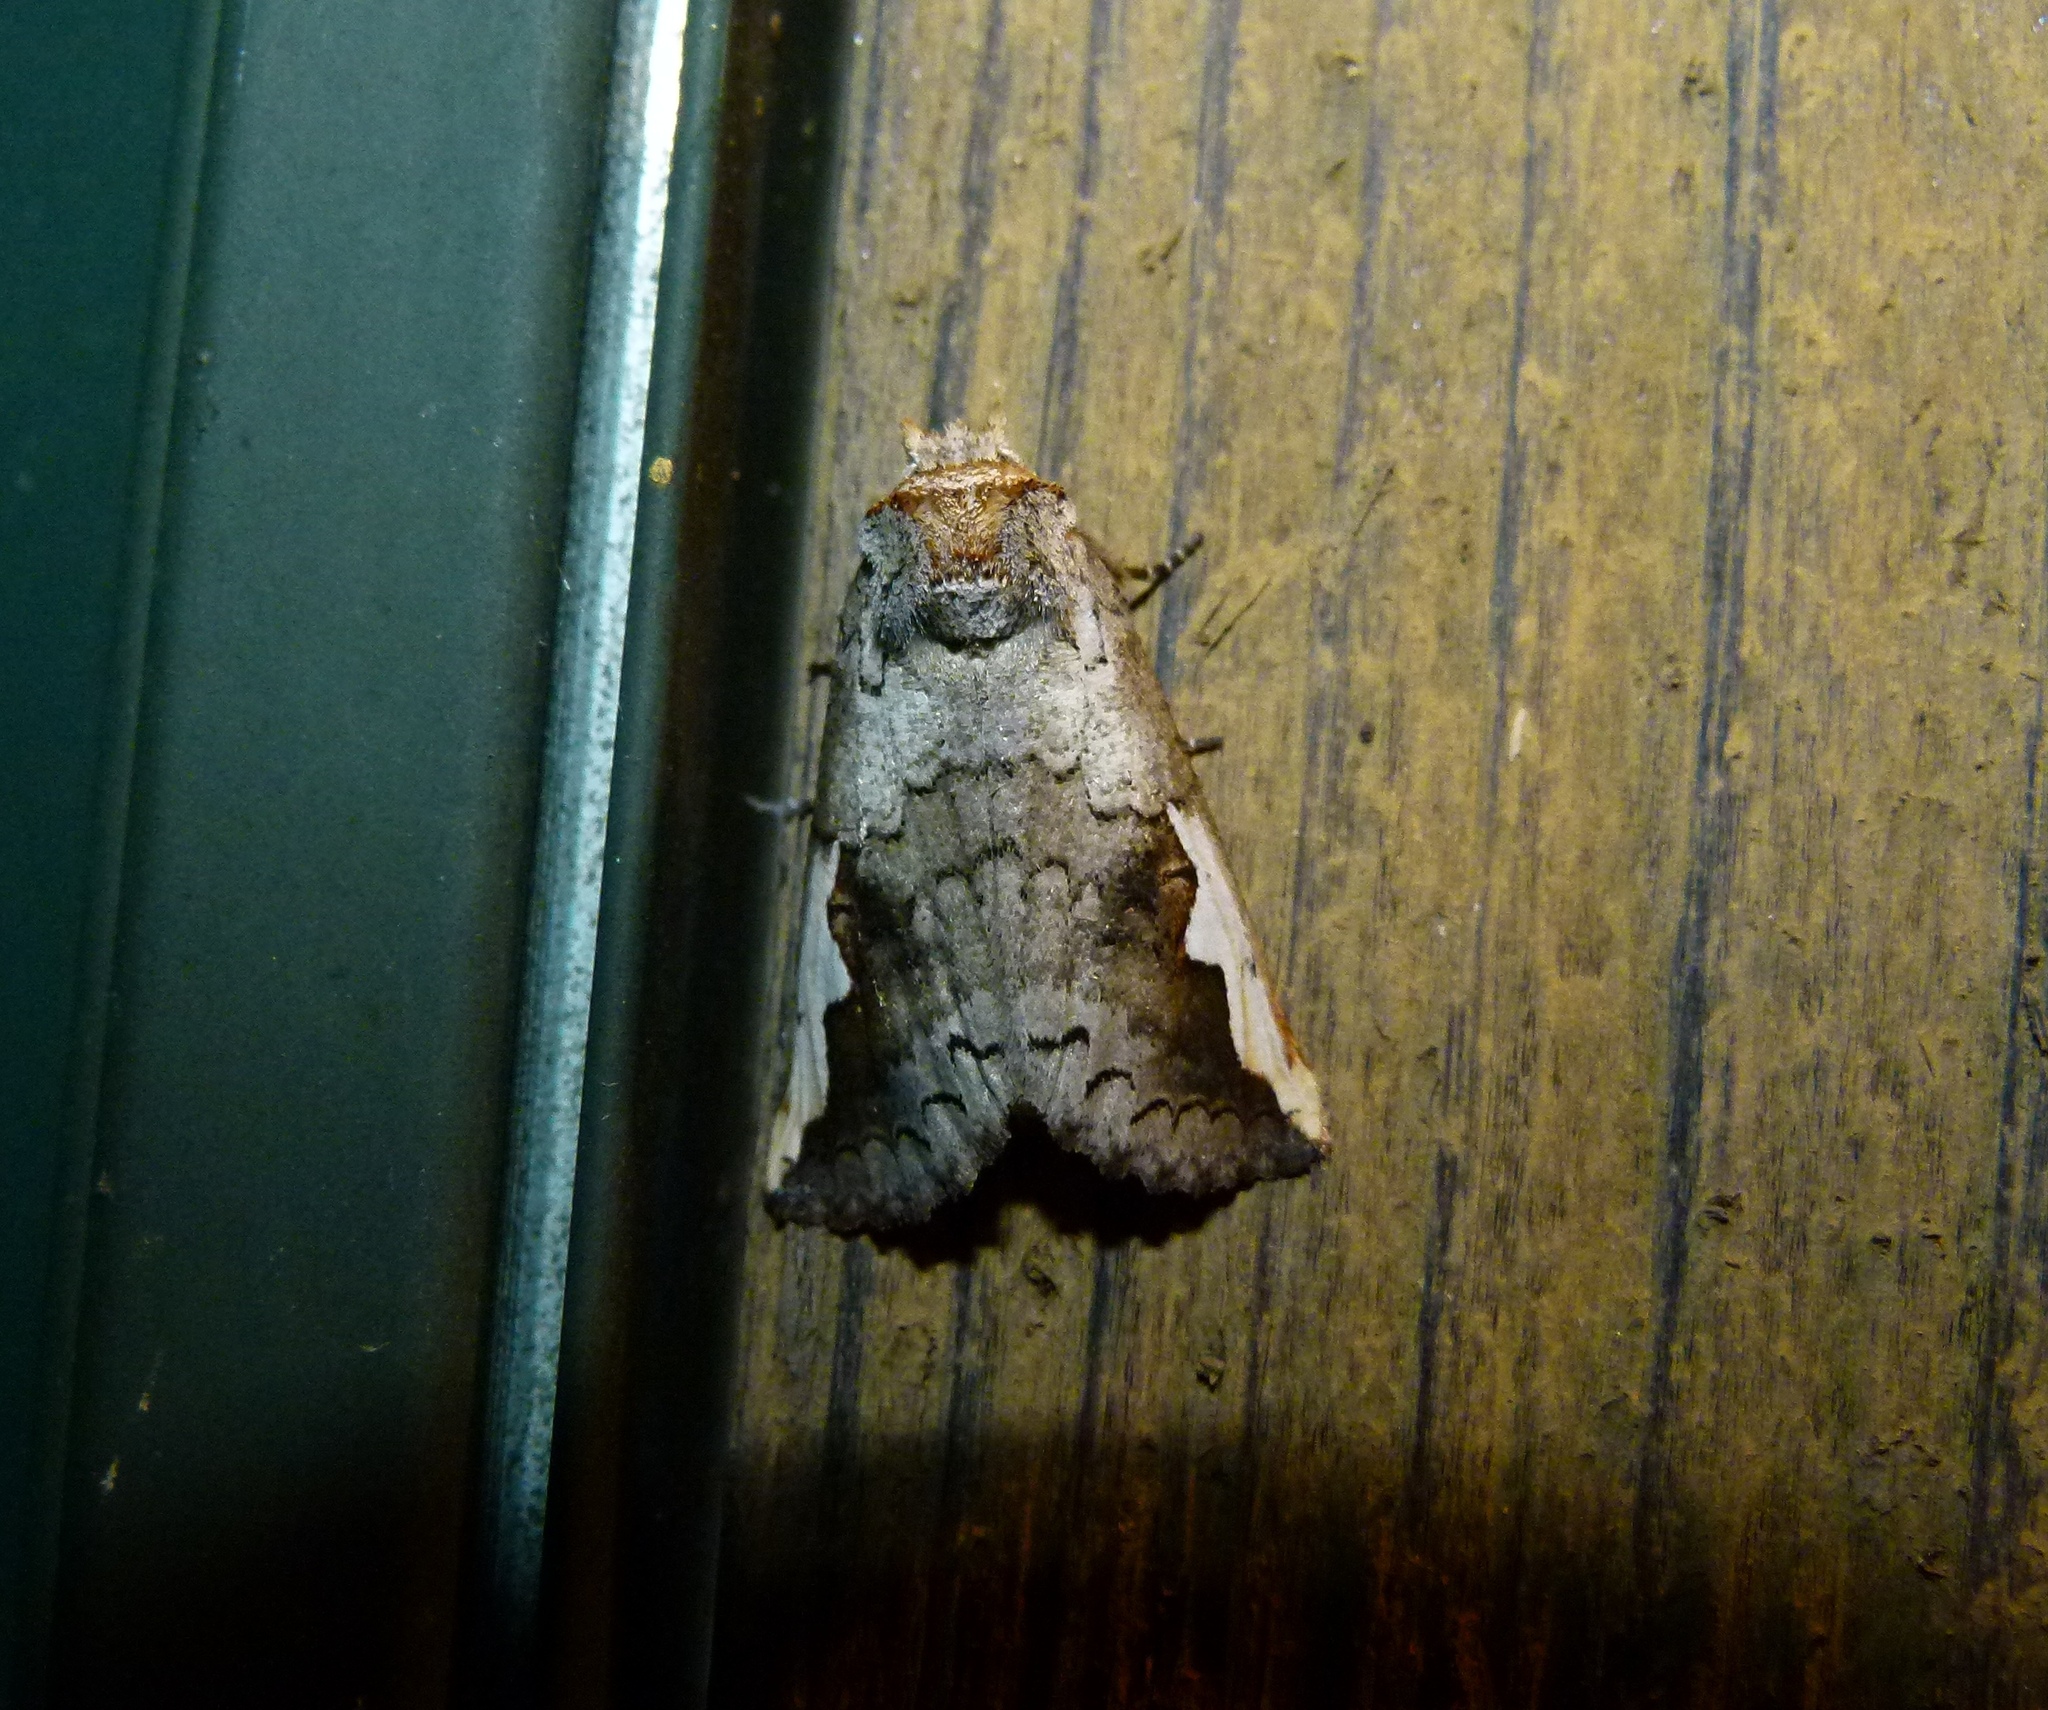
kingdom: Animalia
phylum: Arthropoda
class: Insecta
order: Lepidoptera
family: Notodontidae
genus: Symmerista
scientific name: Symmerista
